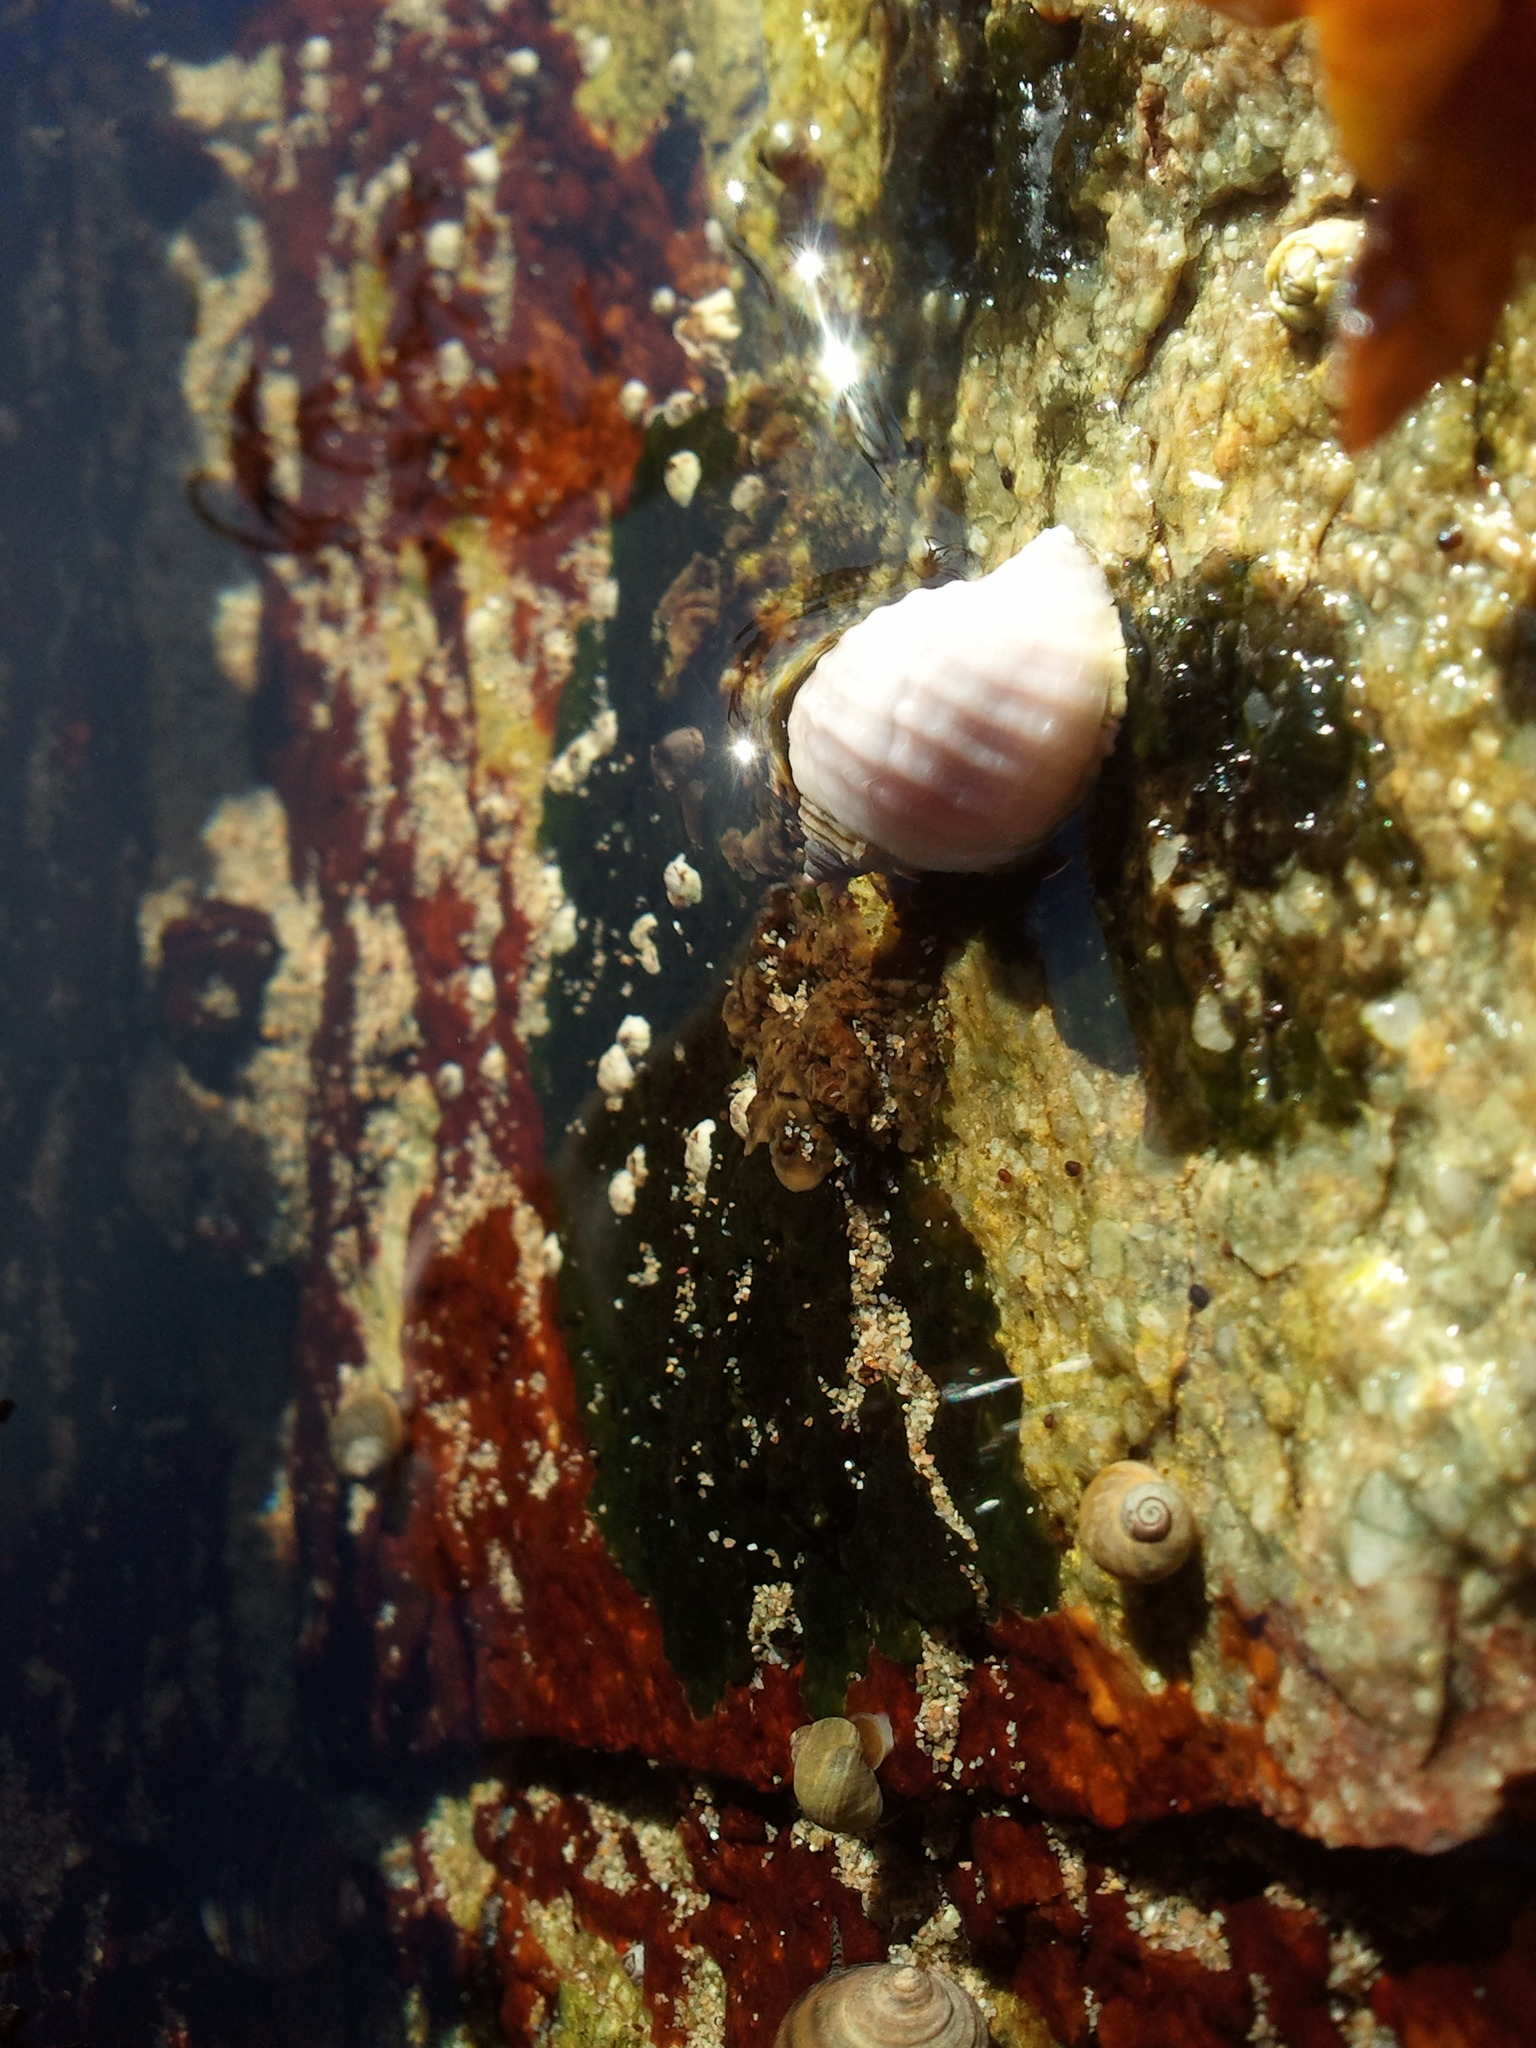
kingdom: Animalia
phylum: Mollusca
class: Gastropoda
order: Neogastropoda
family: Muricidae
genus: Nucella
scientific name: Nucella lapillus
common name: Dog whelk
